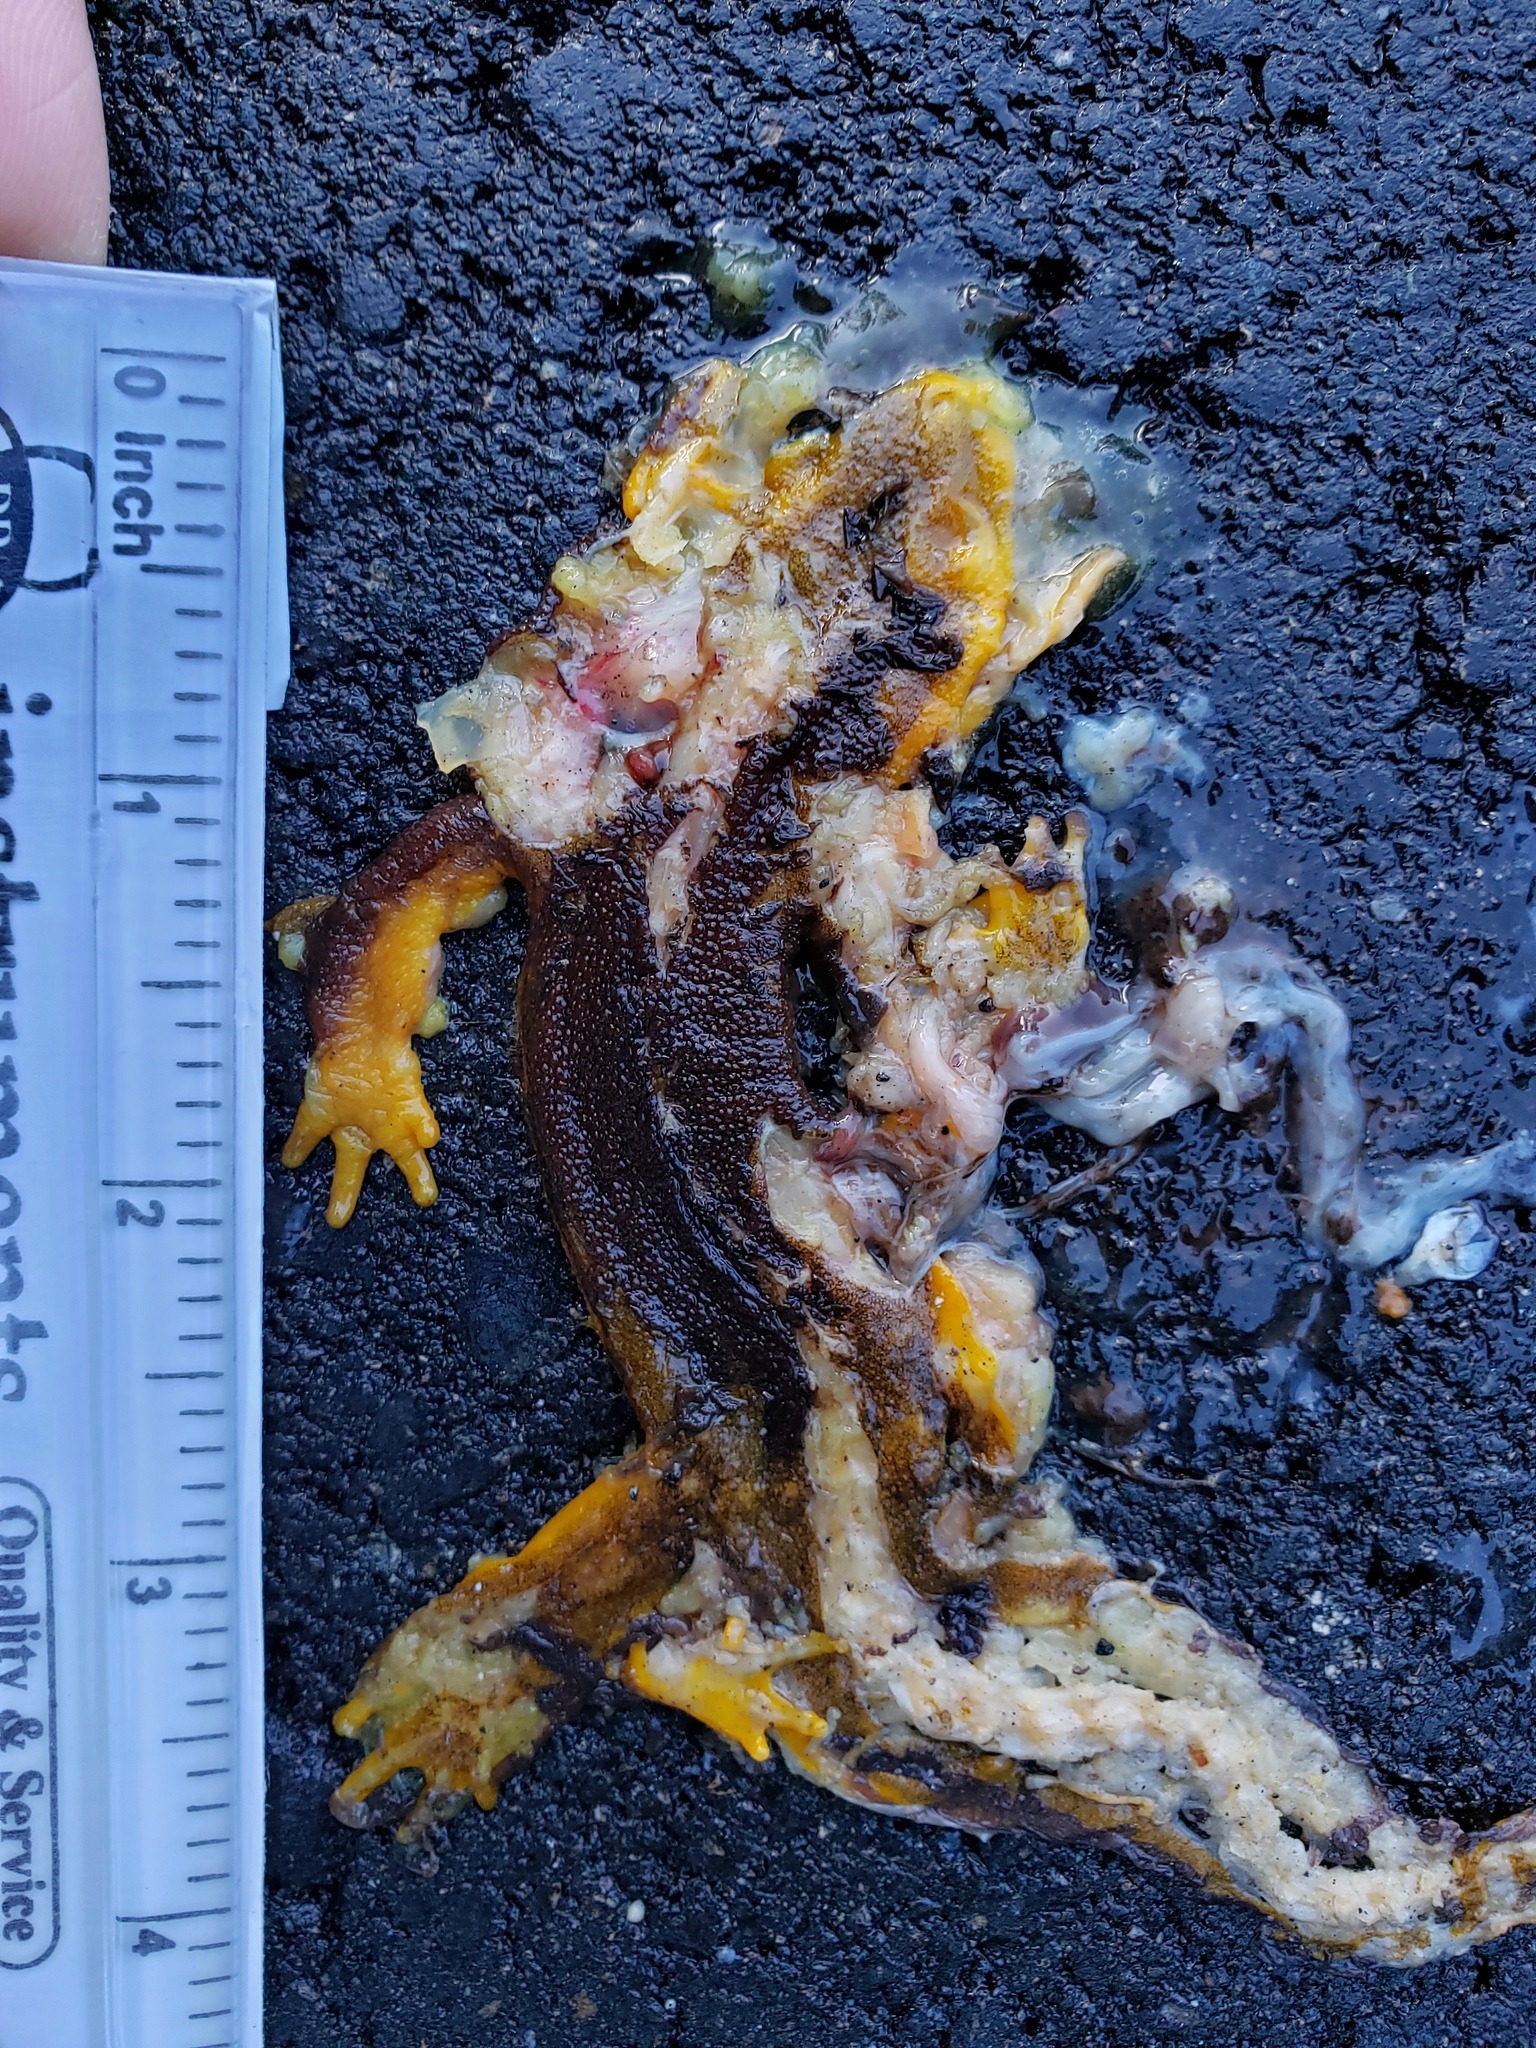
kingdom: Animalia
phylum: Chordata
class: Amphibia
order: Caudata
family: Salamandridae
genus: Taricha
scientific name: Taricha
